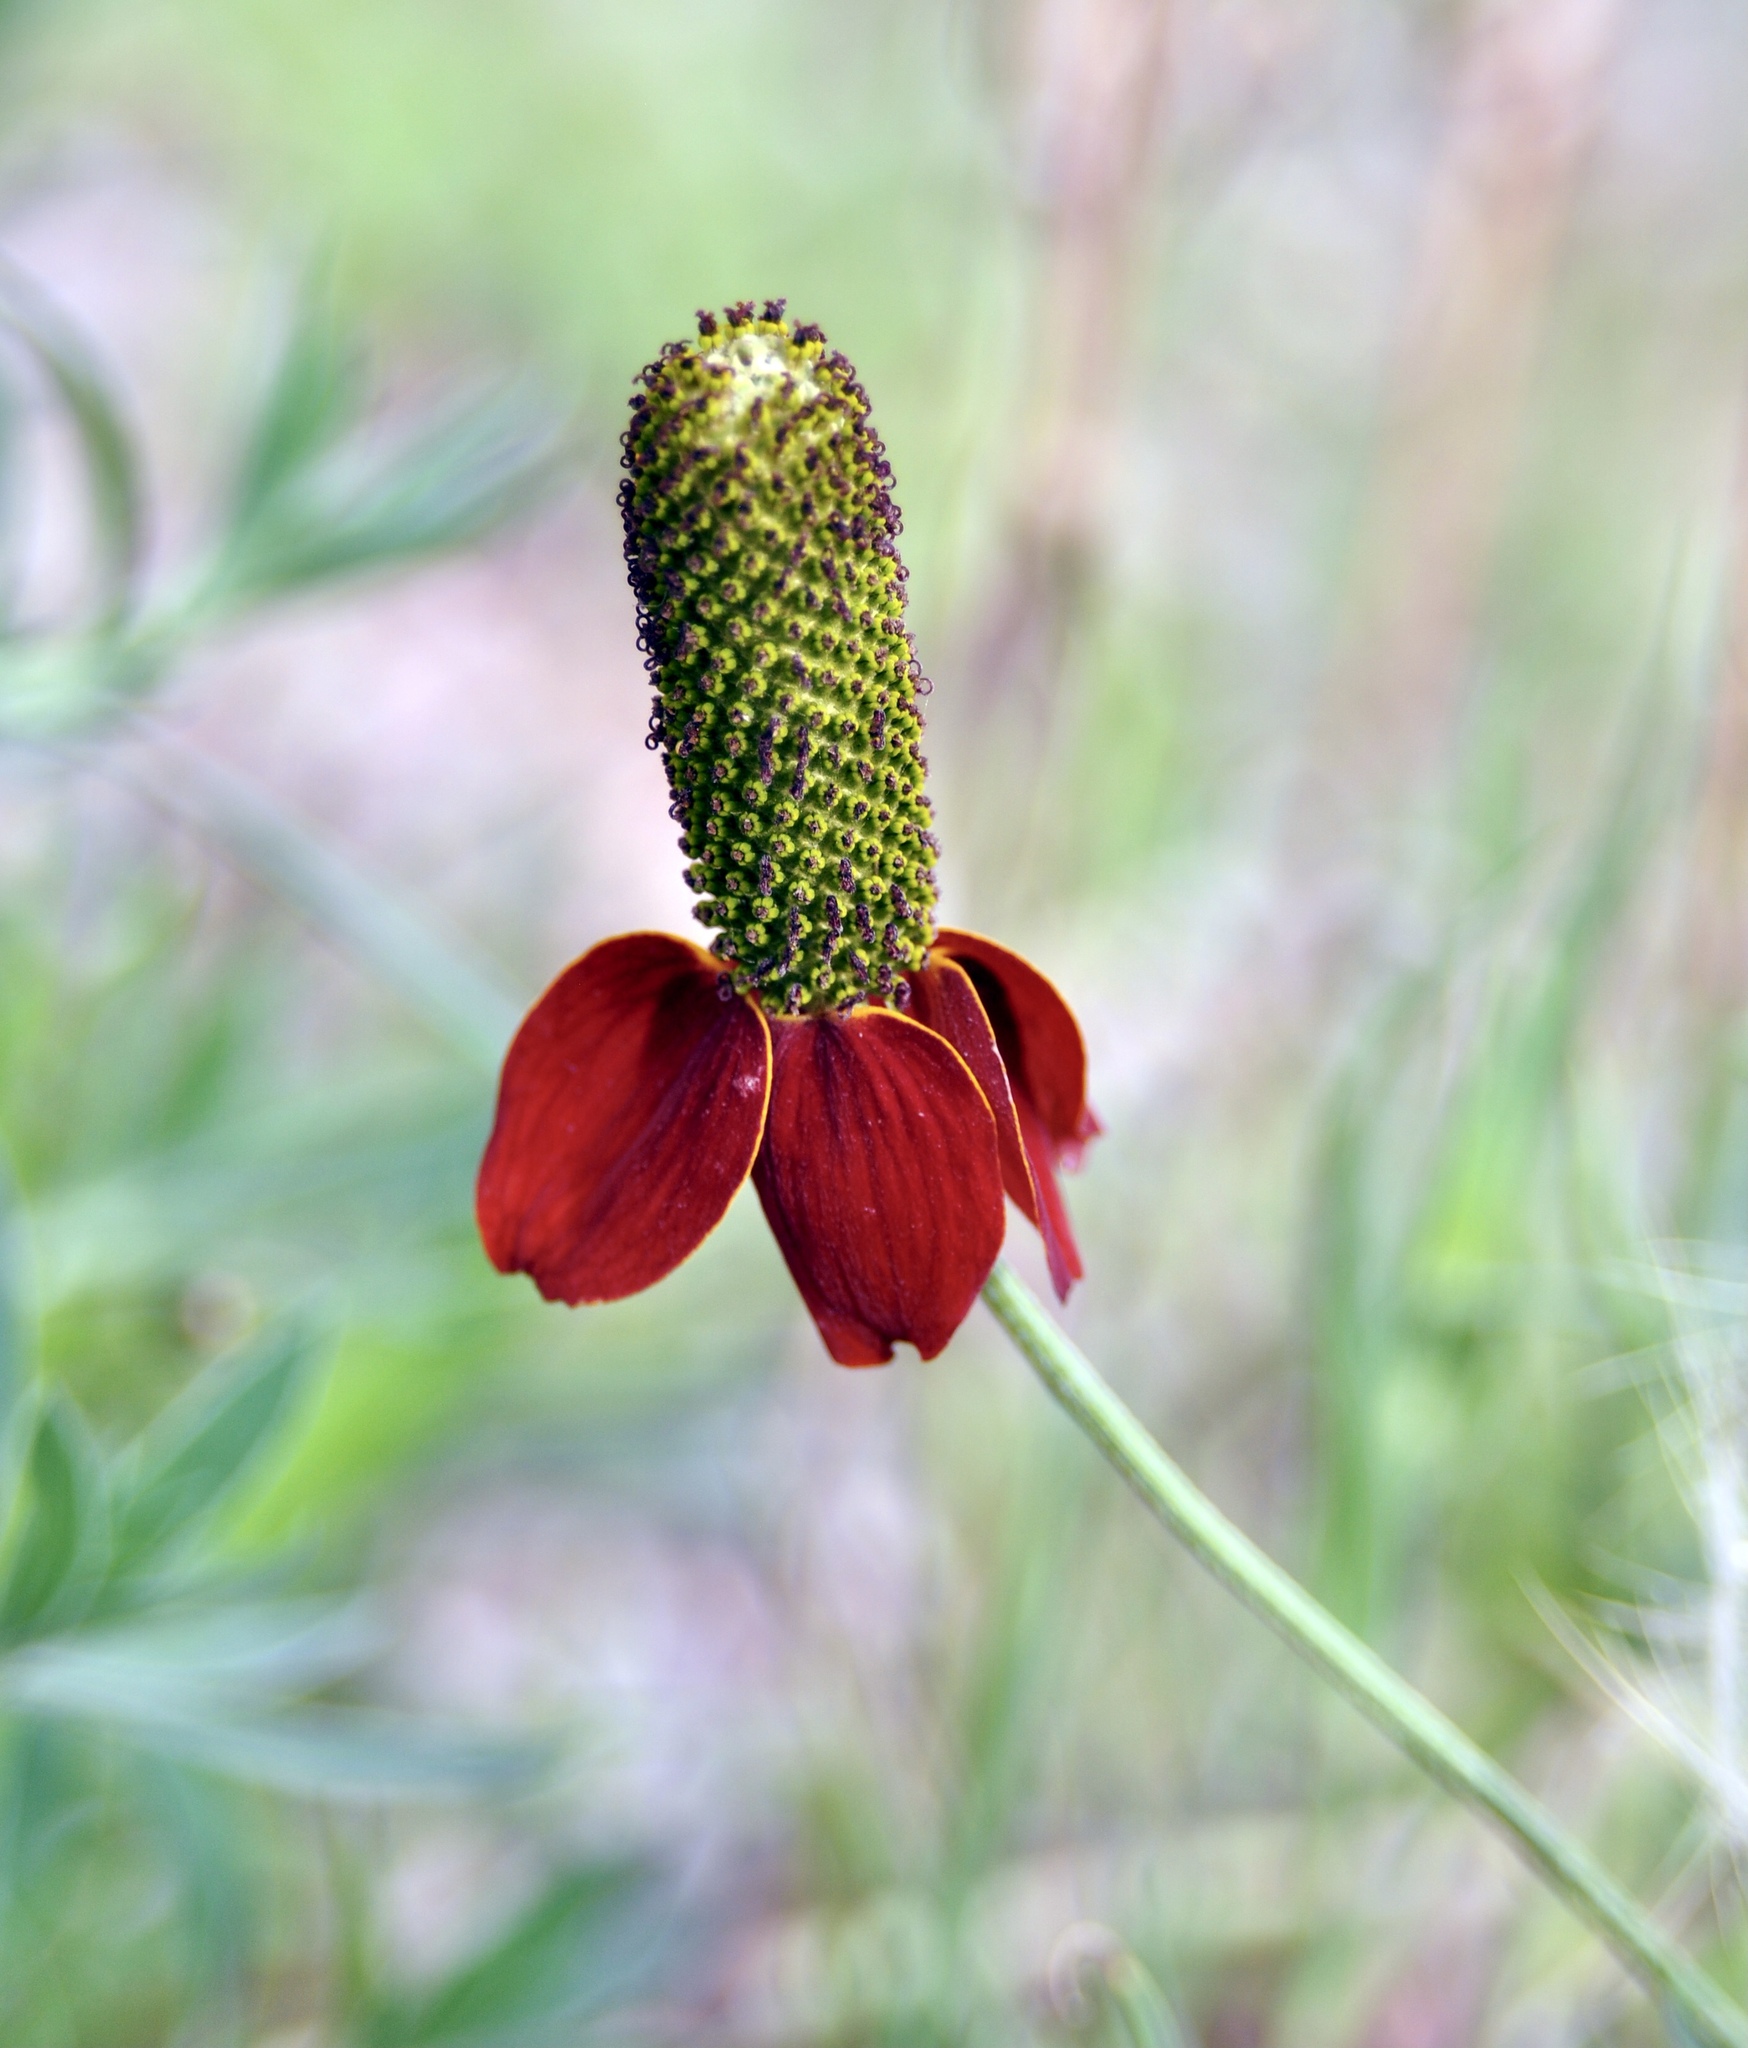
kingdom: Plantae
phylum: Tracheophyta
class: Magnoliopsida
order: Asterales
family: Asteraceae
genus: Ratibida
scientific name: Ratibida columnifera
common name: Prairie coneflower
